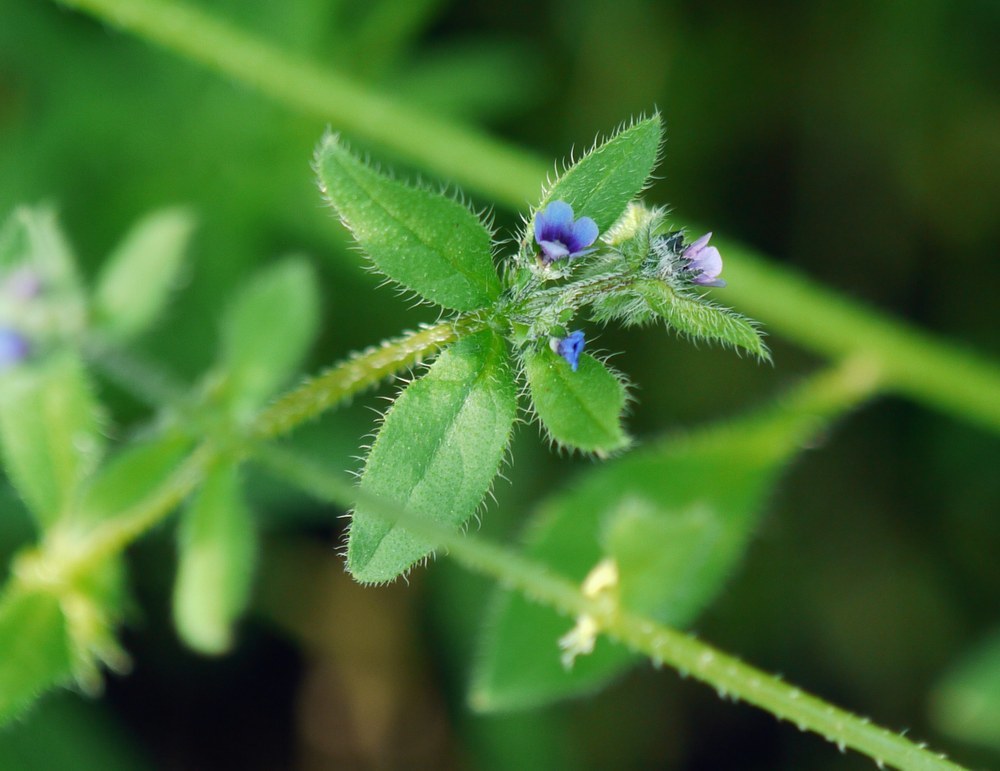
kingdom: Plantae
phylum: Tracheophyta
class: Magnoliopsida
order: Boraginales
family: Boraginaceae
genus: Asperugo
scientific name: Asperugo procumbens
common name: Madwort
